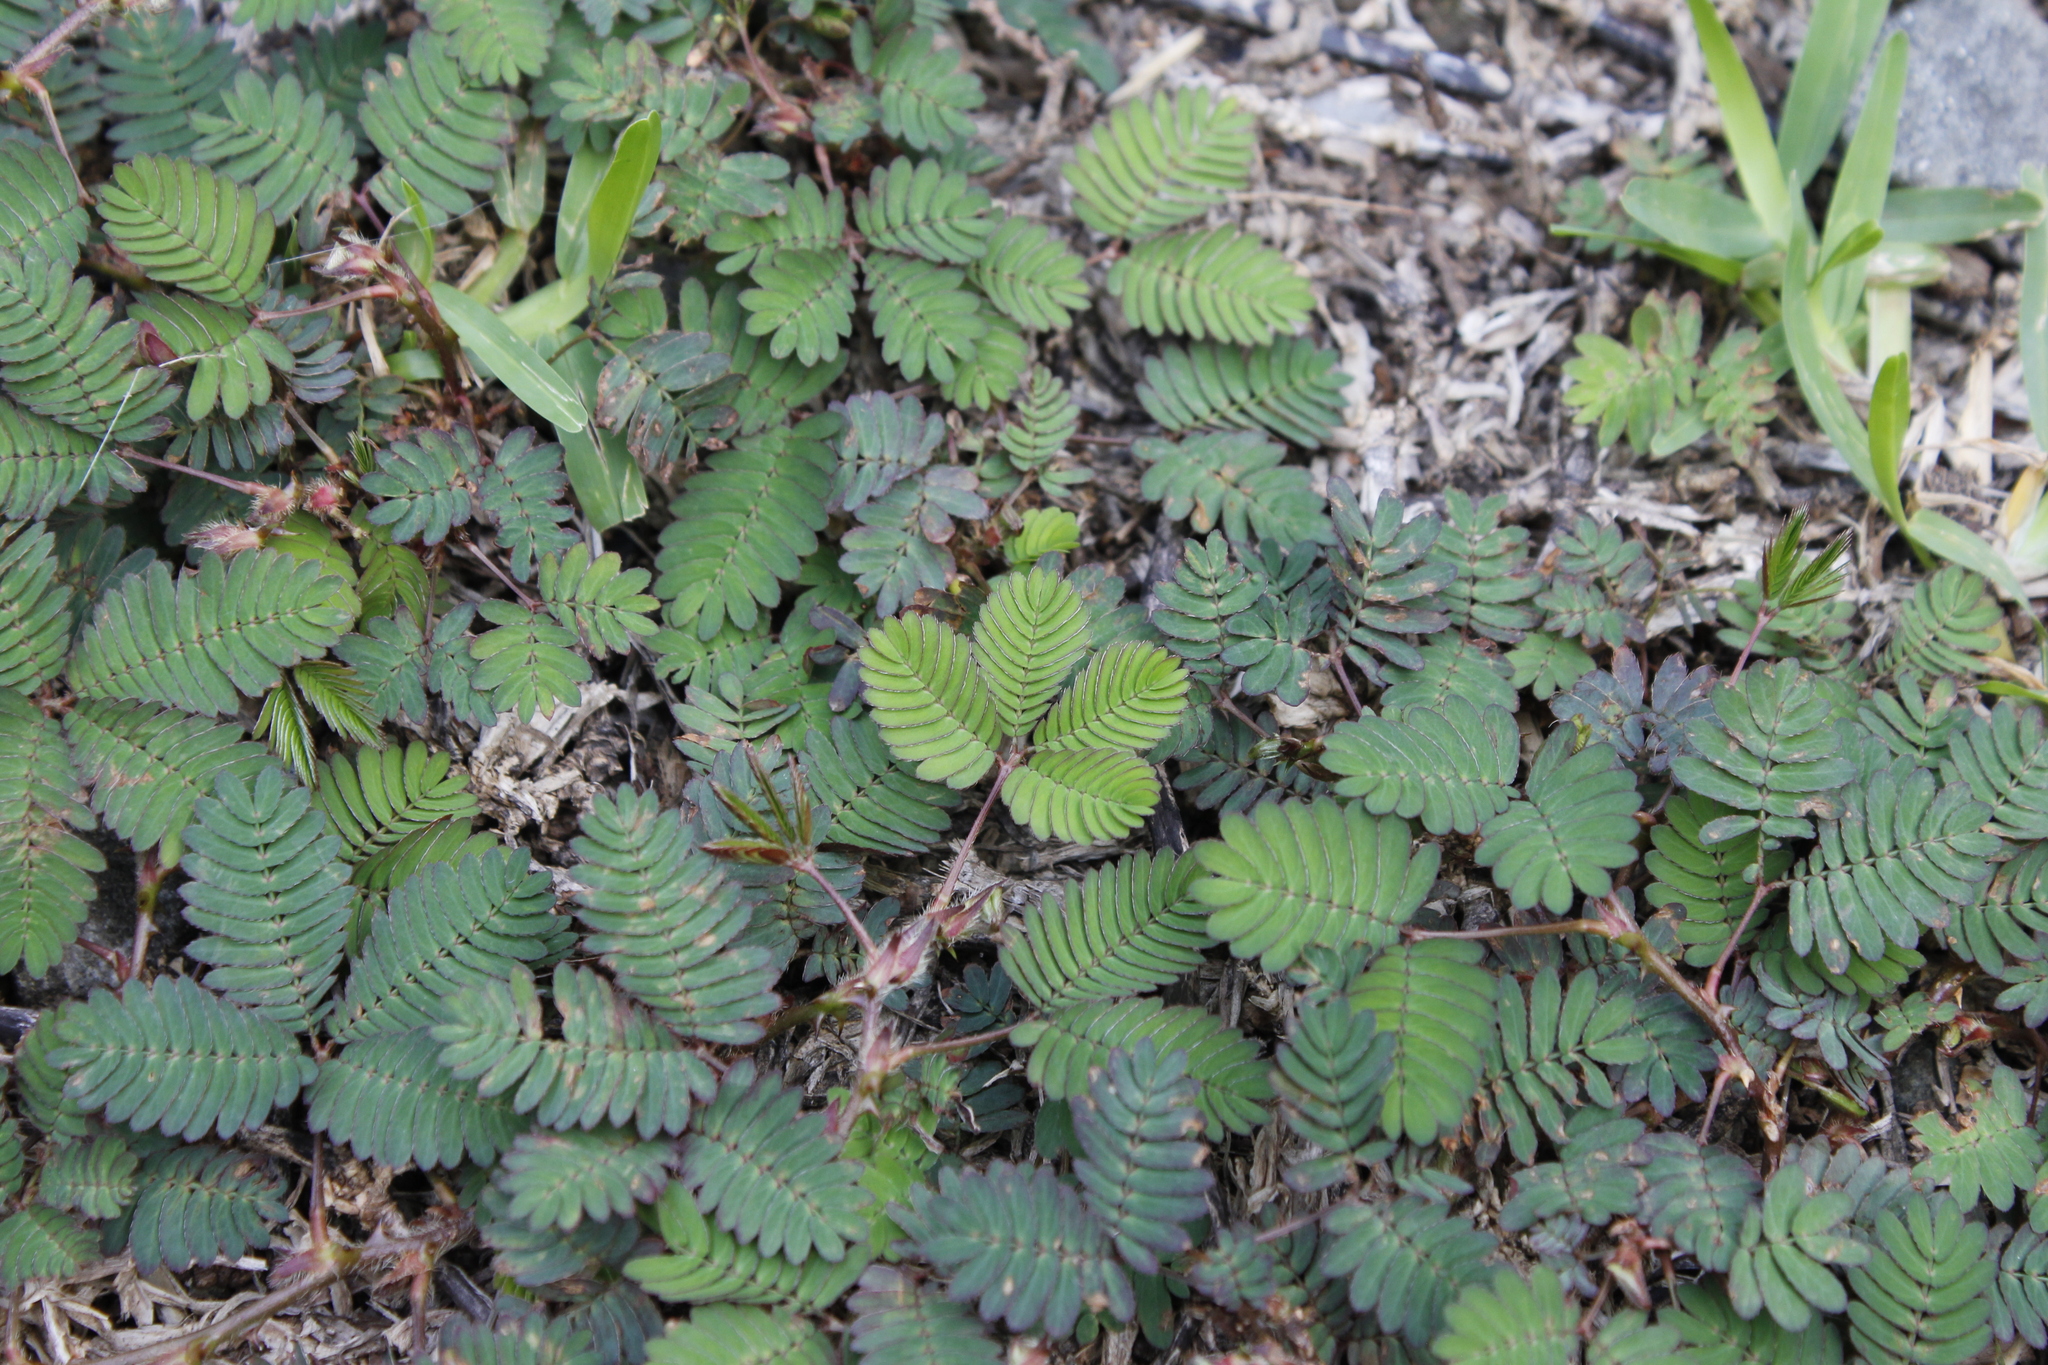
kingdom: Plantae
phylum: Tracheophyta
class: Magnoliopsida
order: Fabales
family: Fabaceae
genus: Mimosa
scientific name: Mimosa pudica
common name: Sensitive plant
